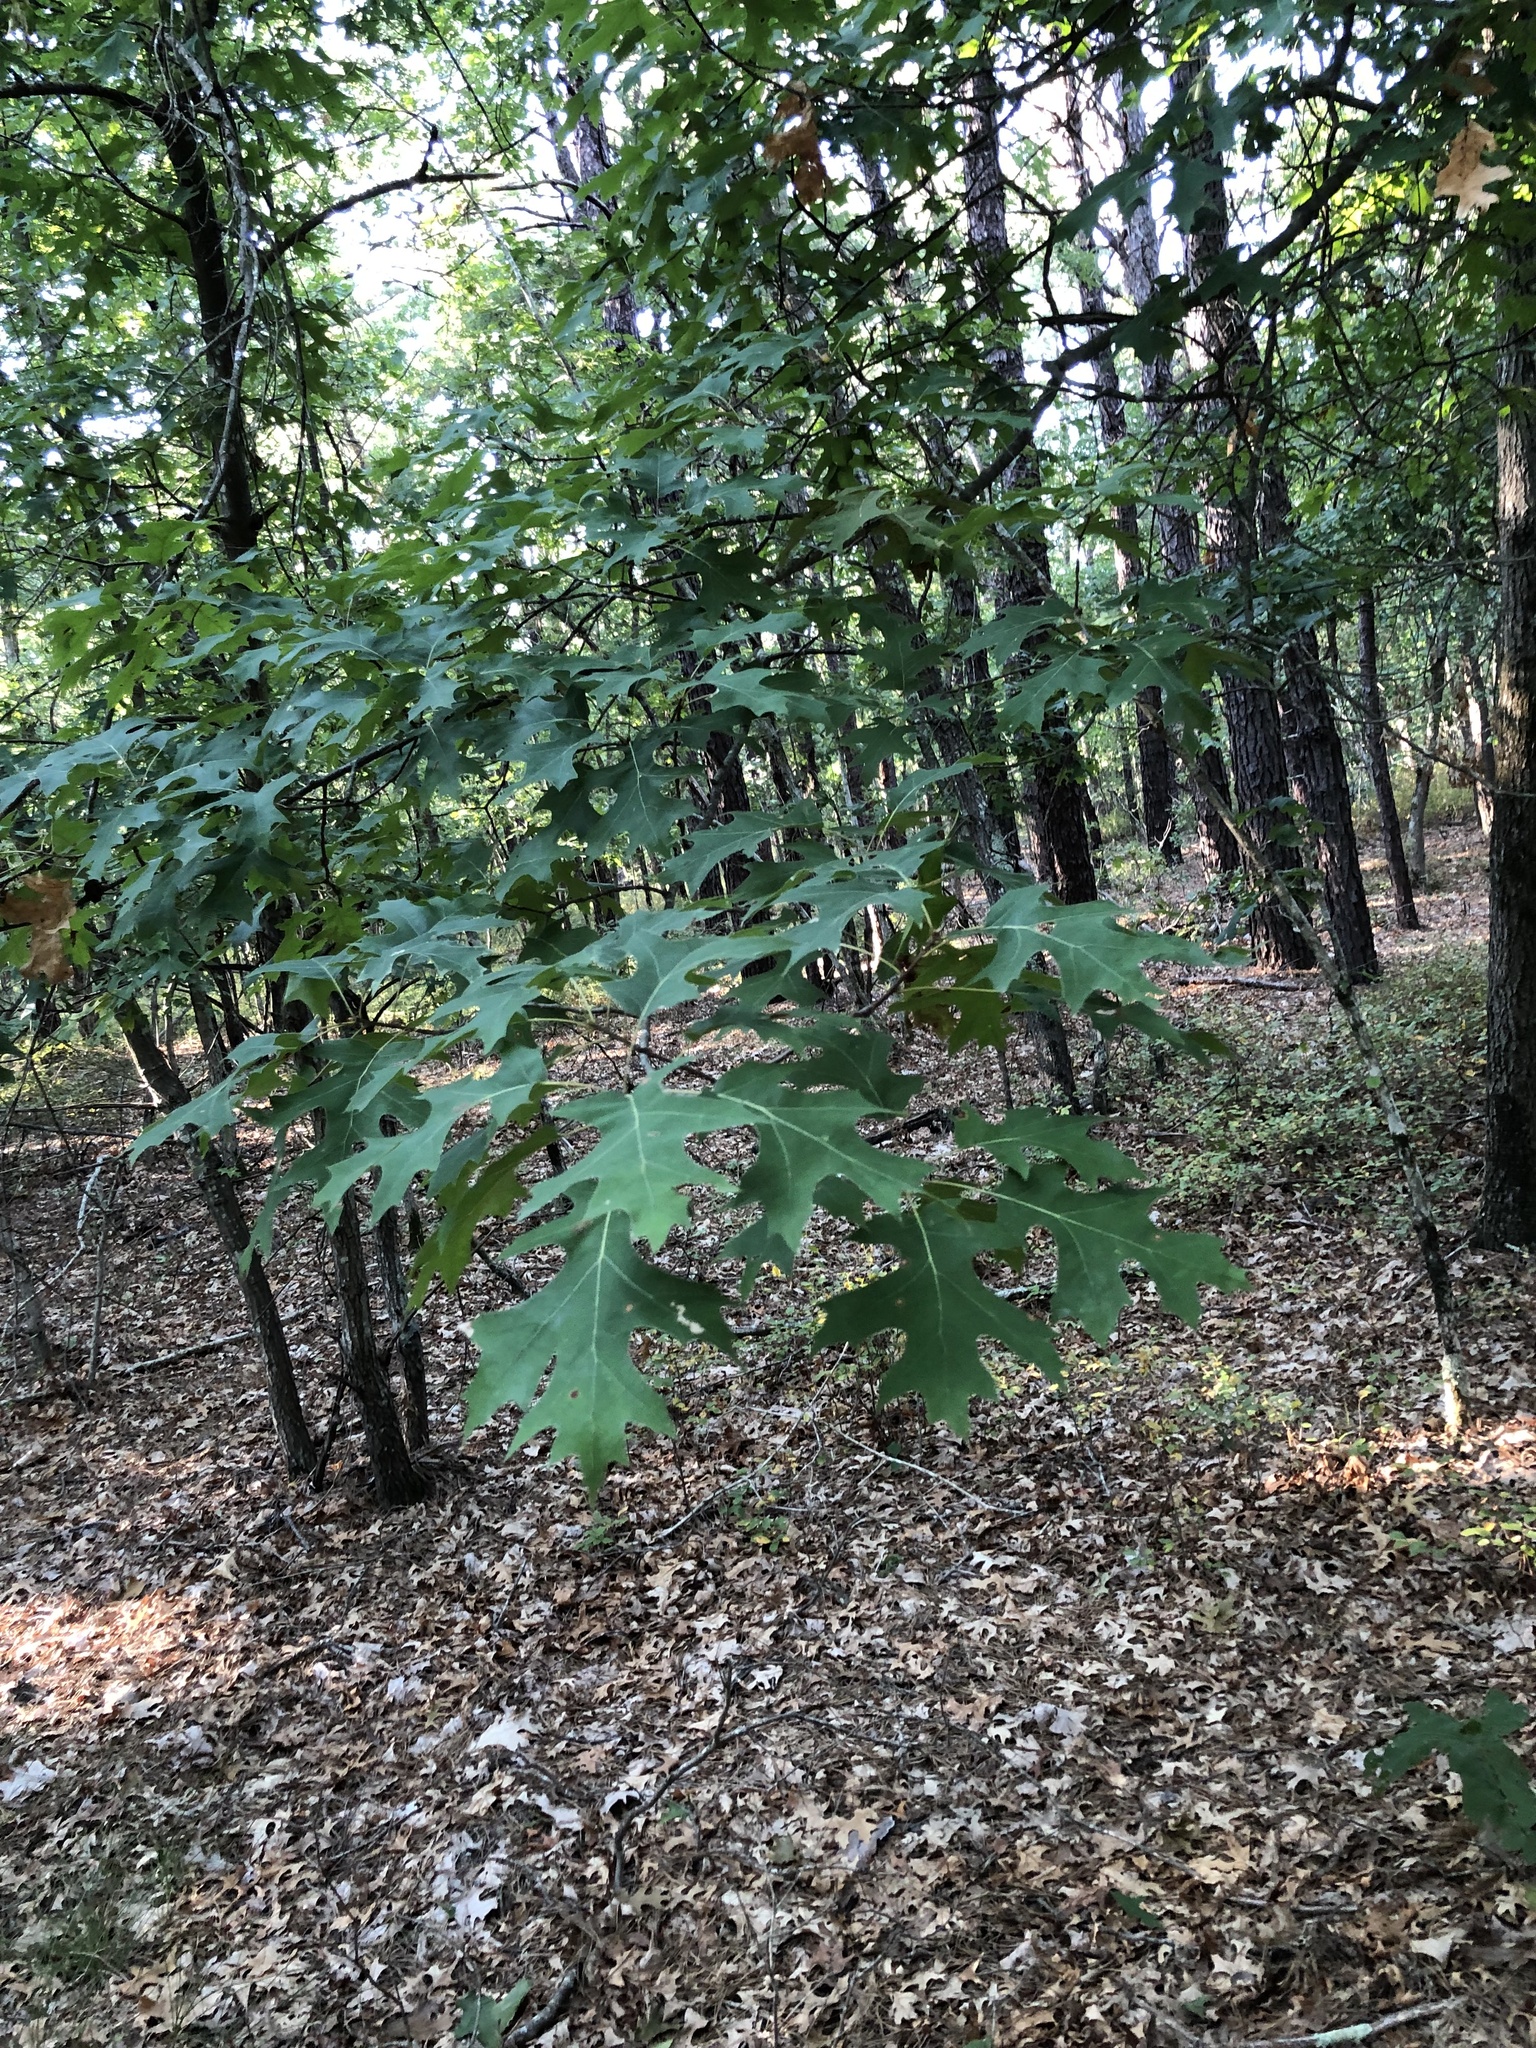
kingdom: Animalia
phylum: Arthropoda
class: Insecta
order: Hymenoptera
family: Cynipidae
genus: Amphibolips
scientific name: Amphibolips
